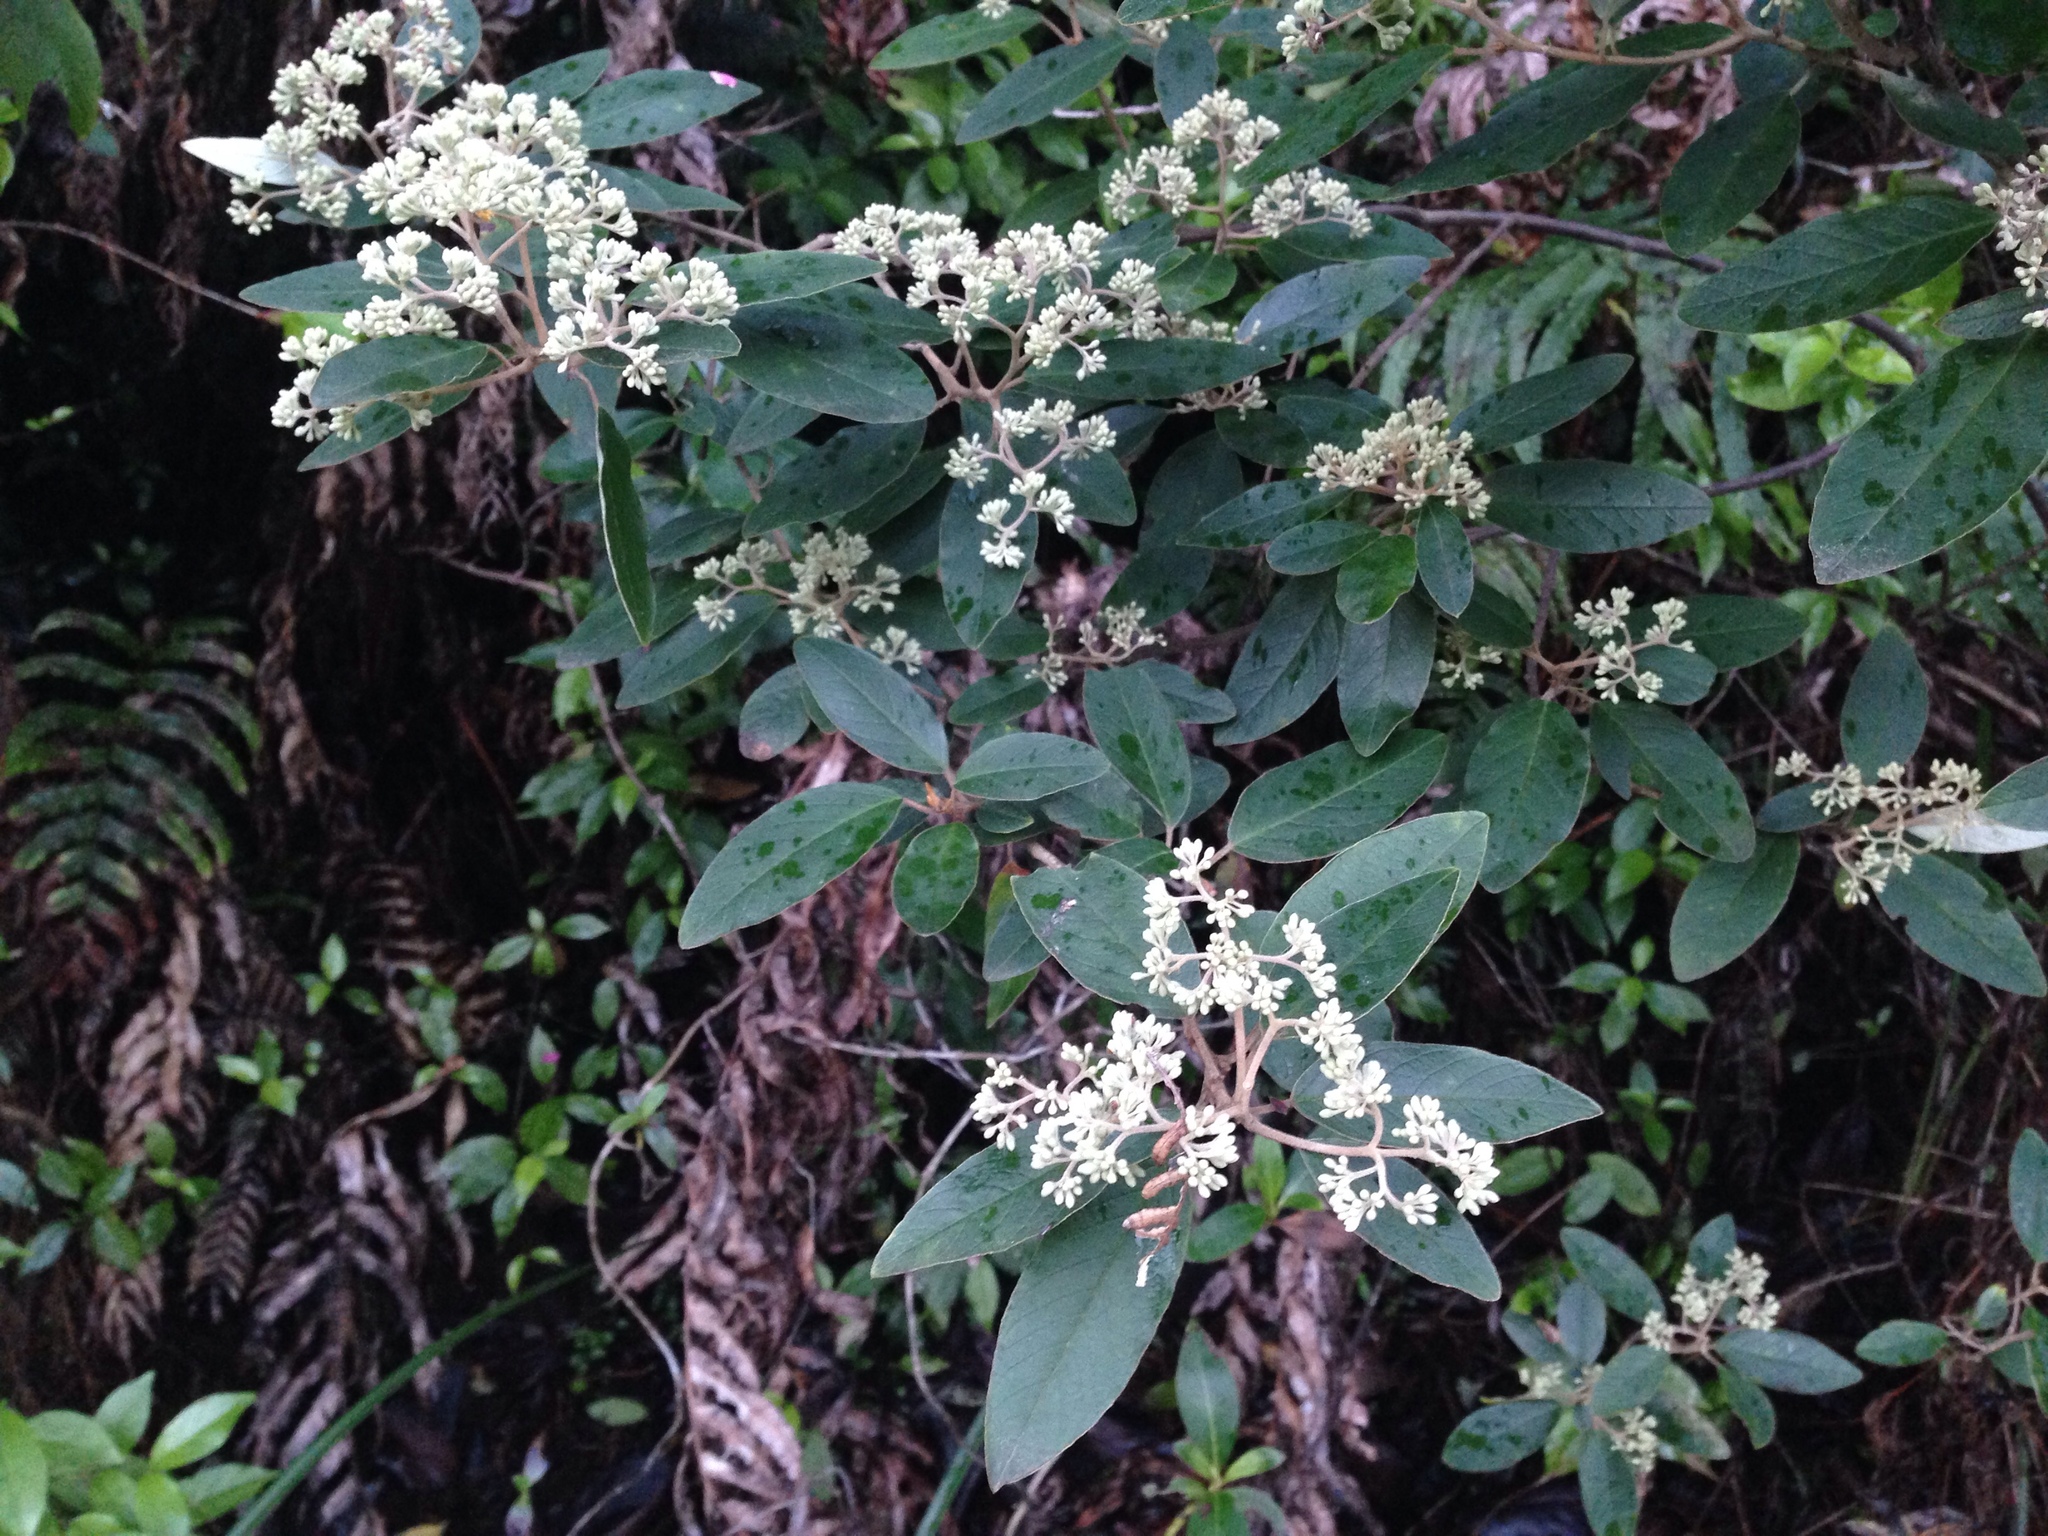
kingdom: Plantae
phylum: Tracheophyta
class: Magnoliopsida
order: Rosales
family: Rhamnaceae
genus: Pomaderris
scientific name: Pomaderris kumeraho
